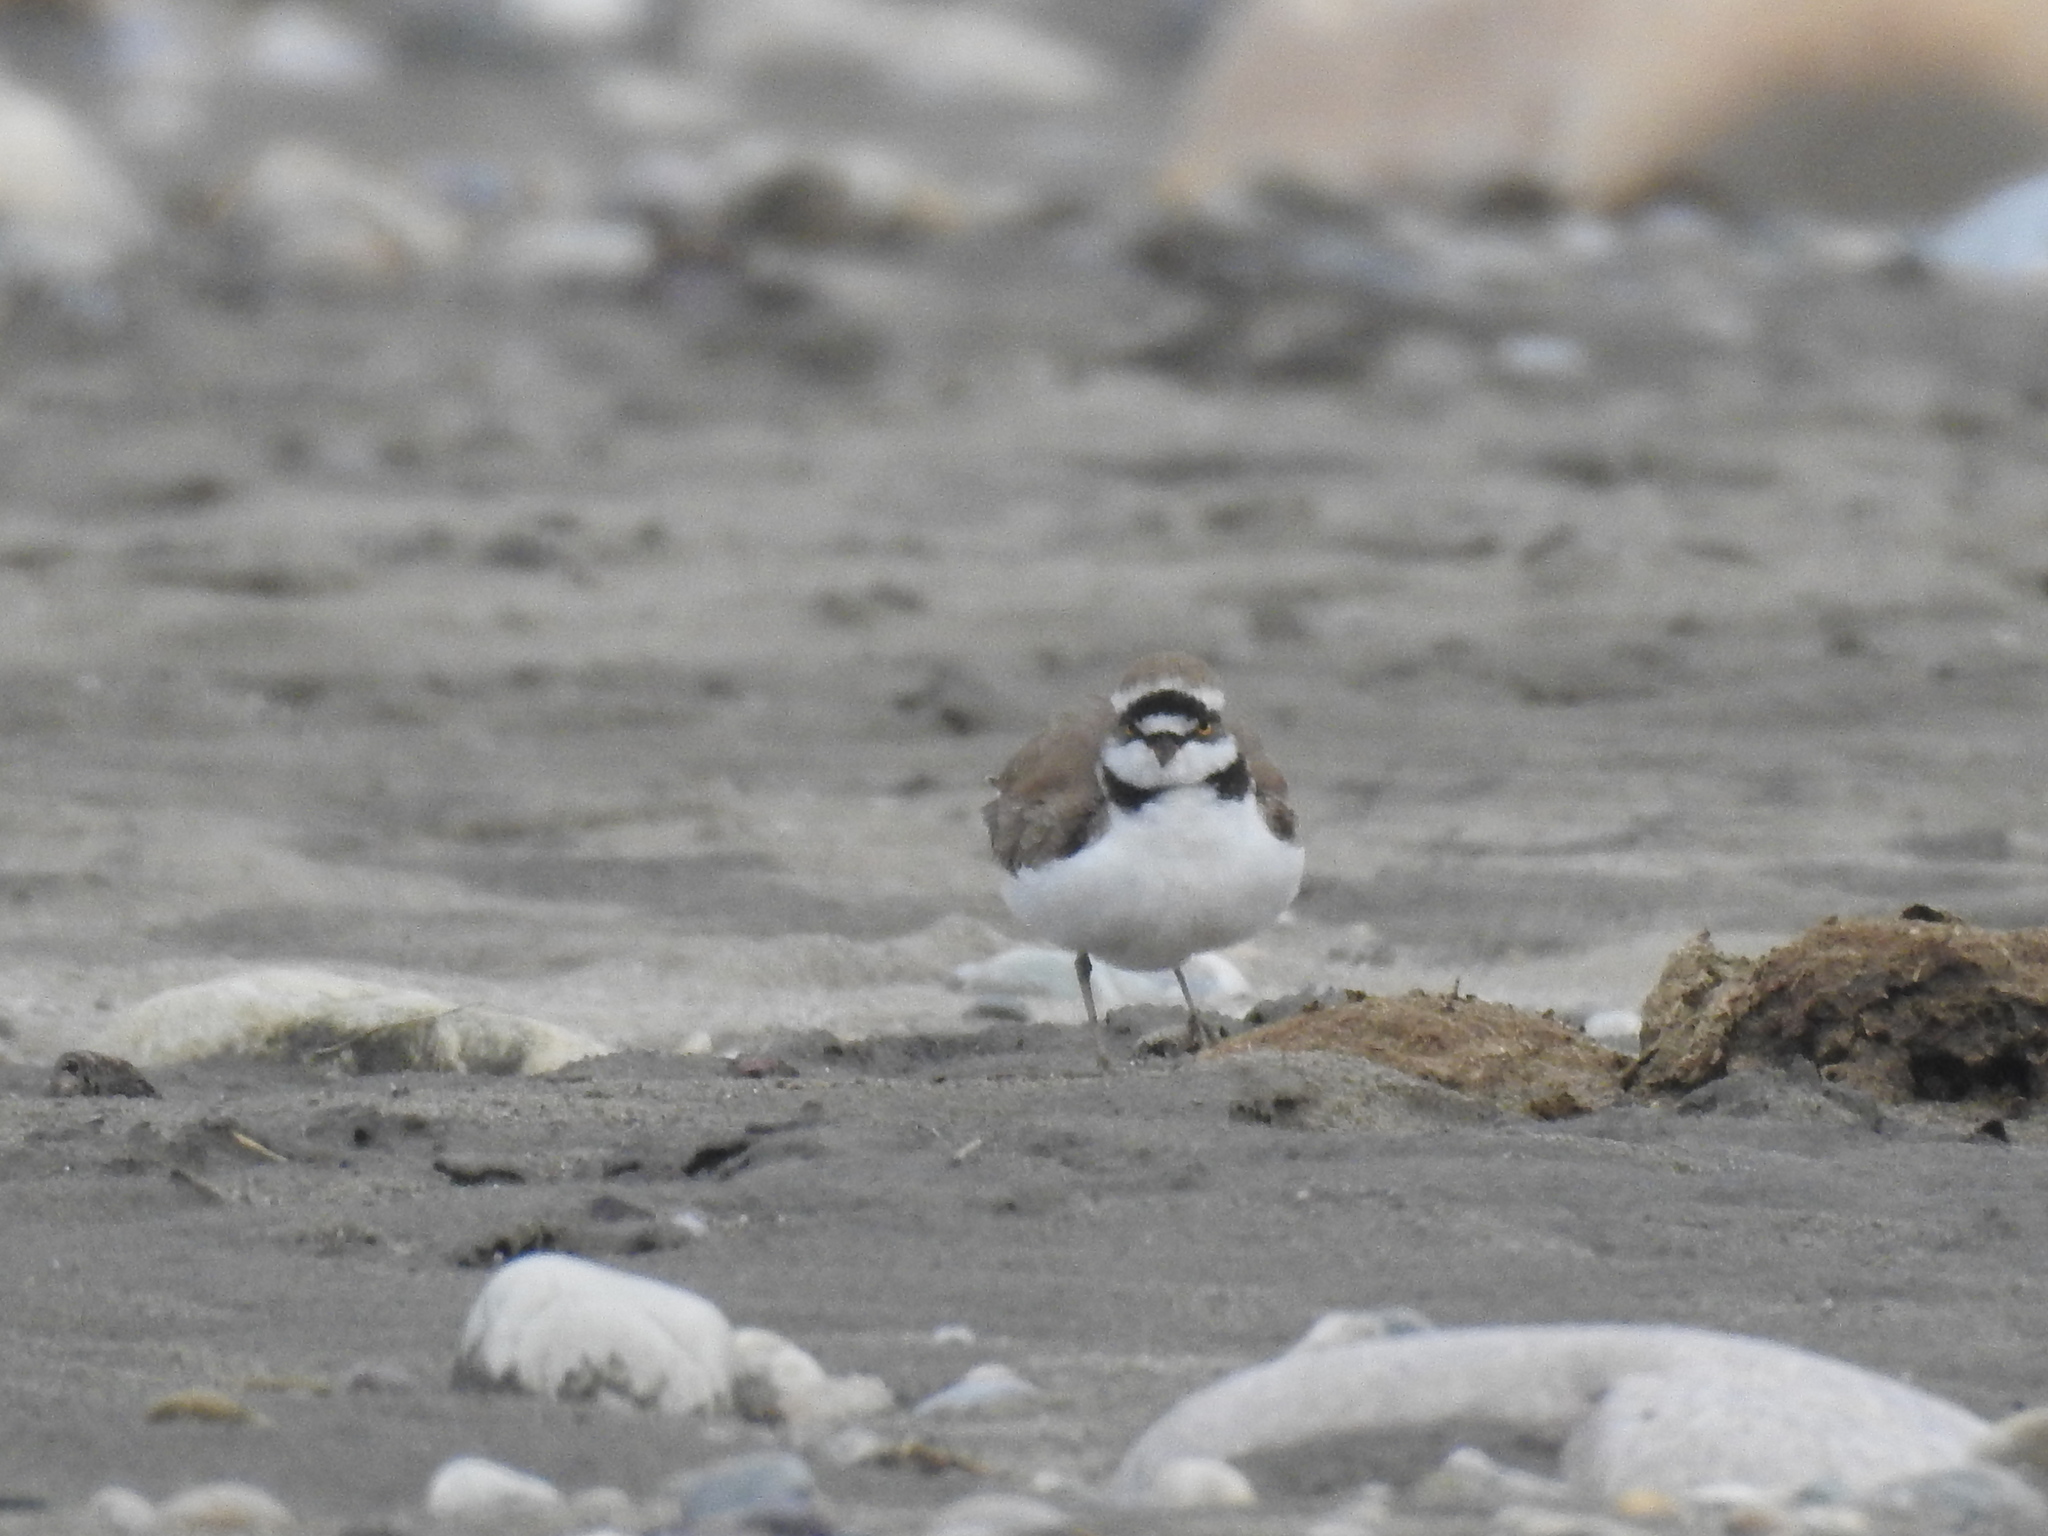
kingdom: Animalia
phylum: Chordata
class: Aves
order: Charadriiformes
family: Charadriidae
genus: Charadrius
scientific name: Charadrius dubius
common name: Little ringed plover
